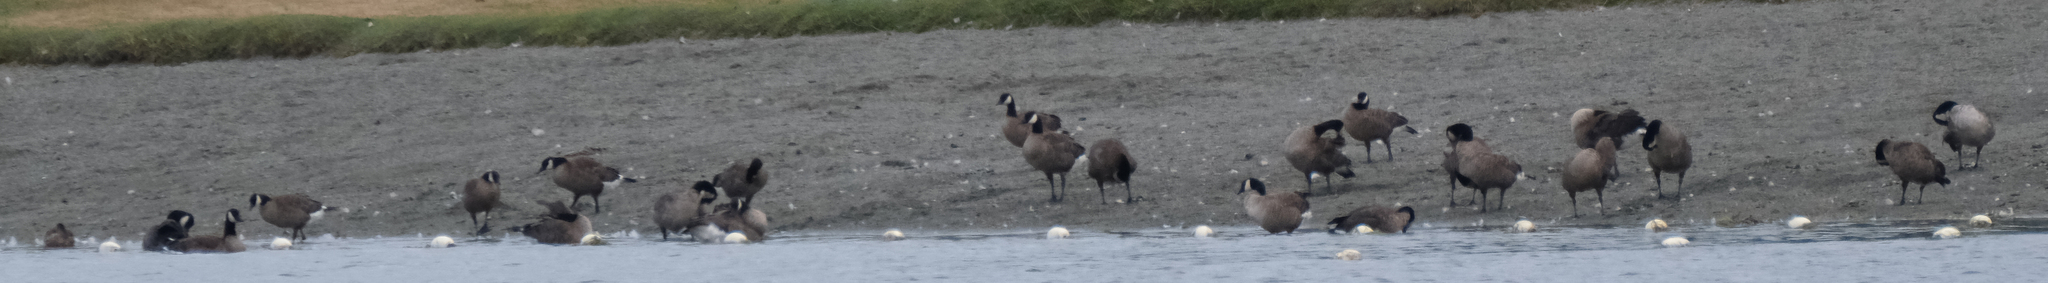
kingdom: Animalia
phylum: Chordata
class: Aves
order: Anseriformes
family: Anatidae
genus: Branta
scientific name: Branta canadensis
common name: Canada goose
